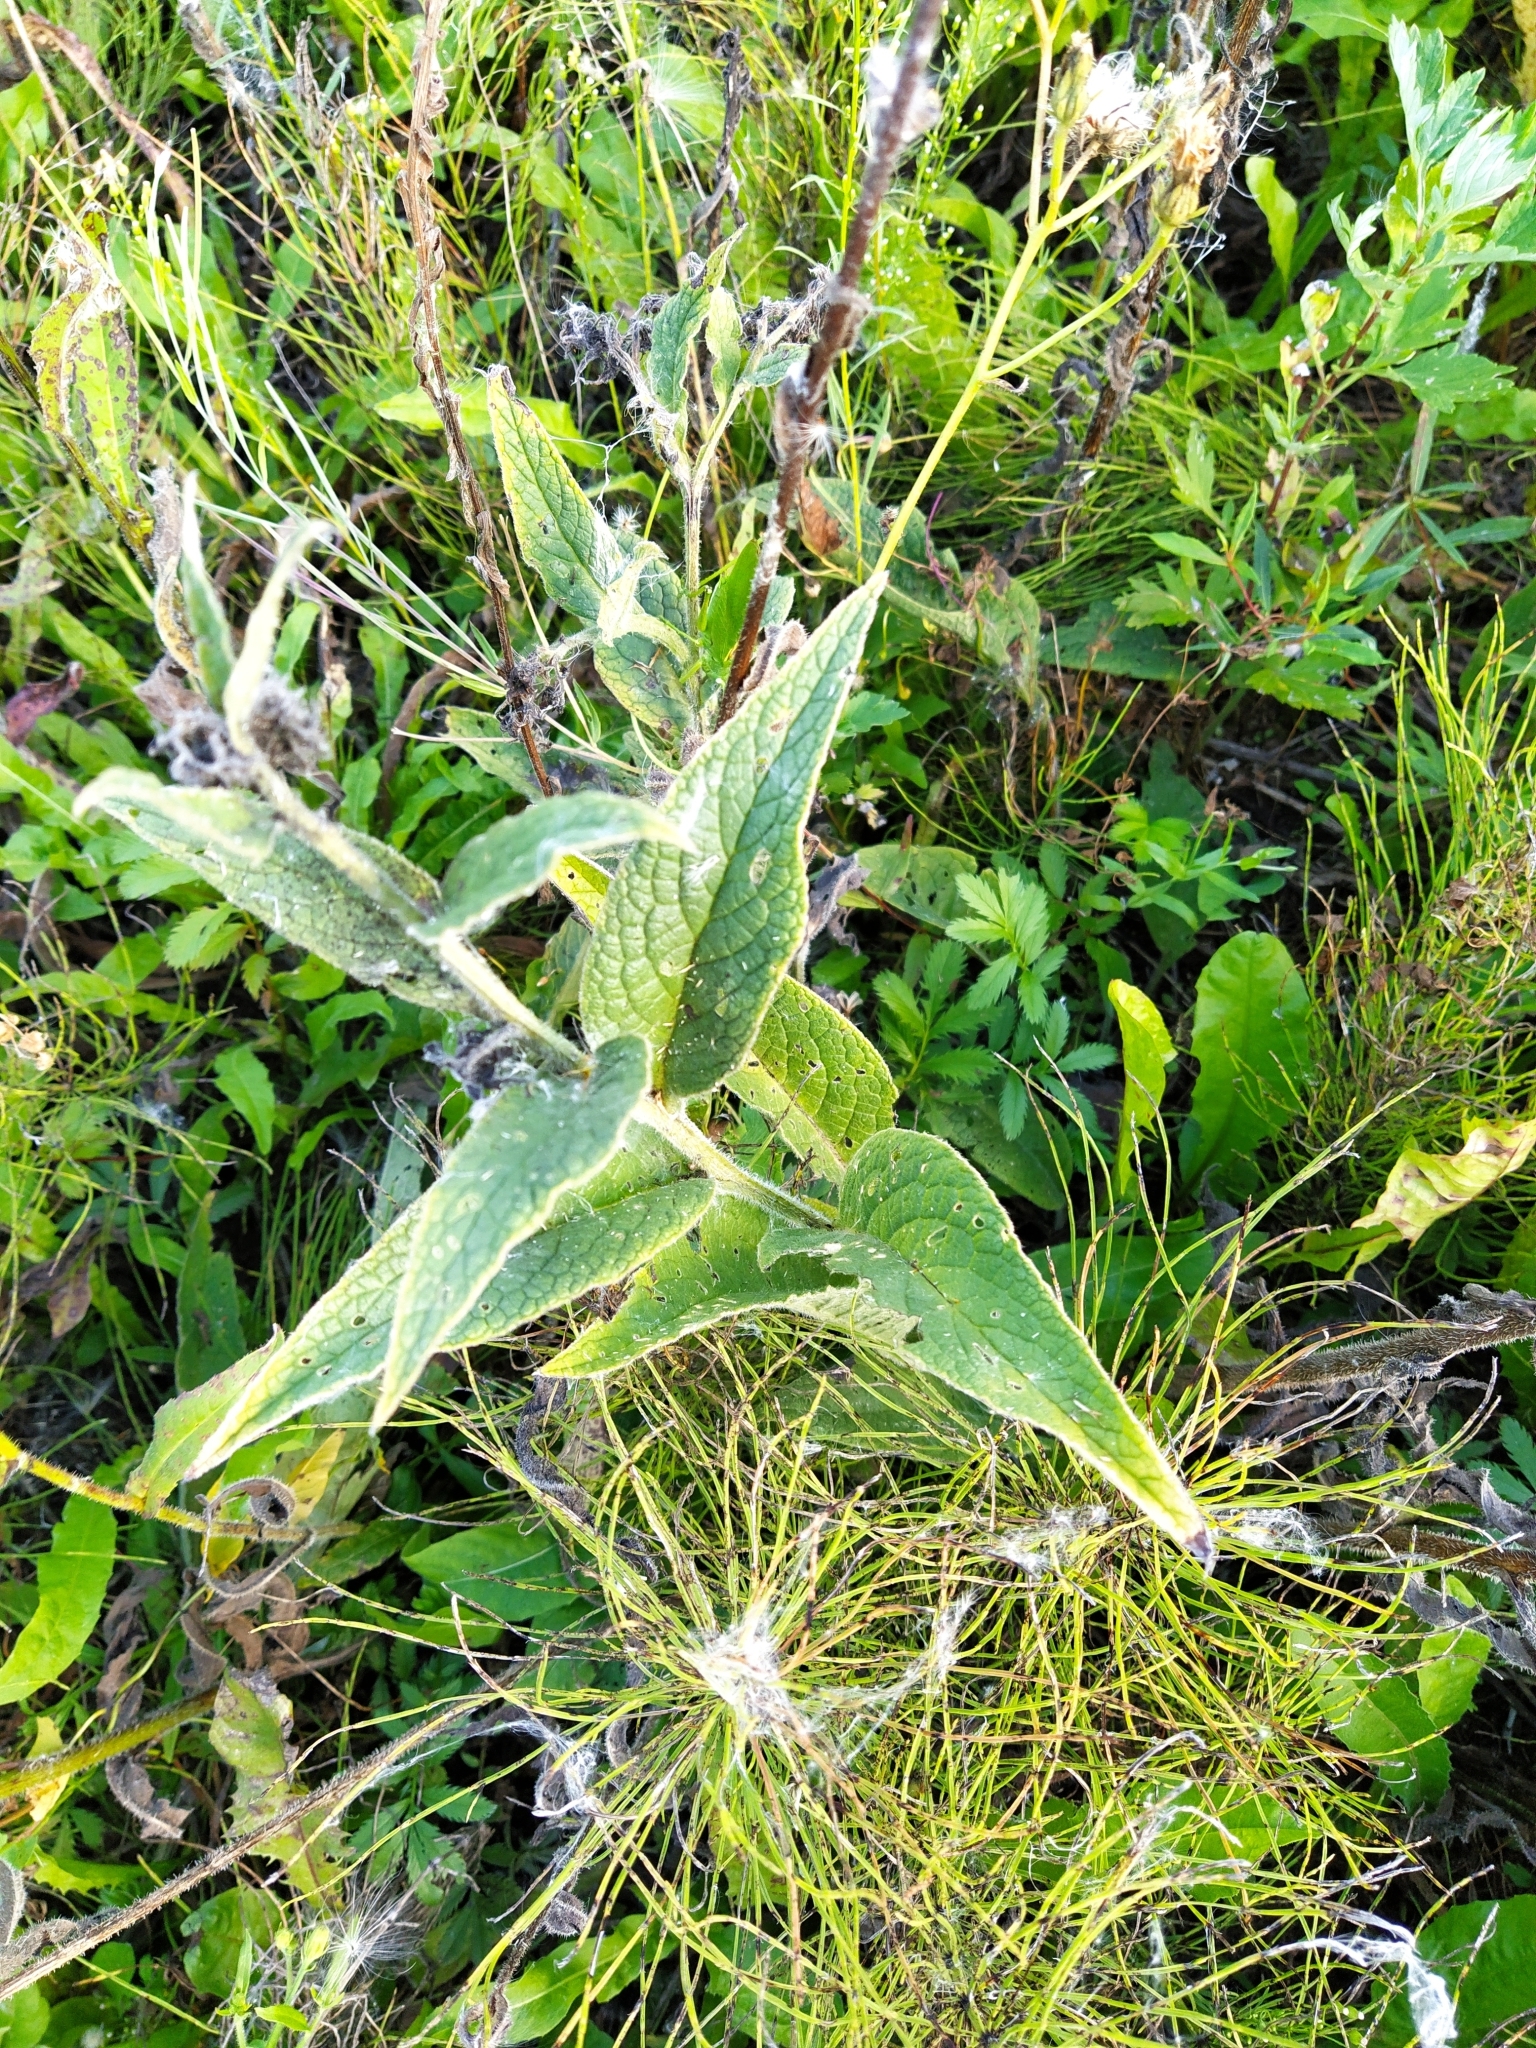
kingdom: Plantae
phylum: Tracheophyta
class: Magnoliopsida
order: Boraginales
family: Boraginaceae
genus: Symphytum
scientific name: Symphytum officinale
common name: Common comfrey
